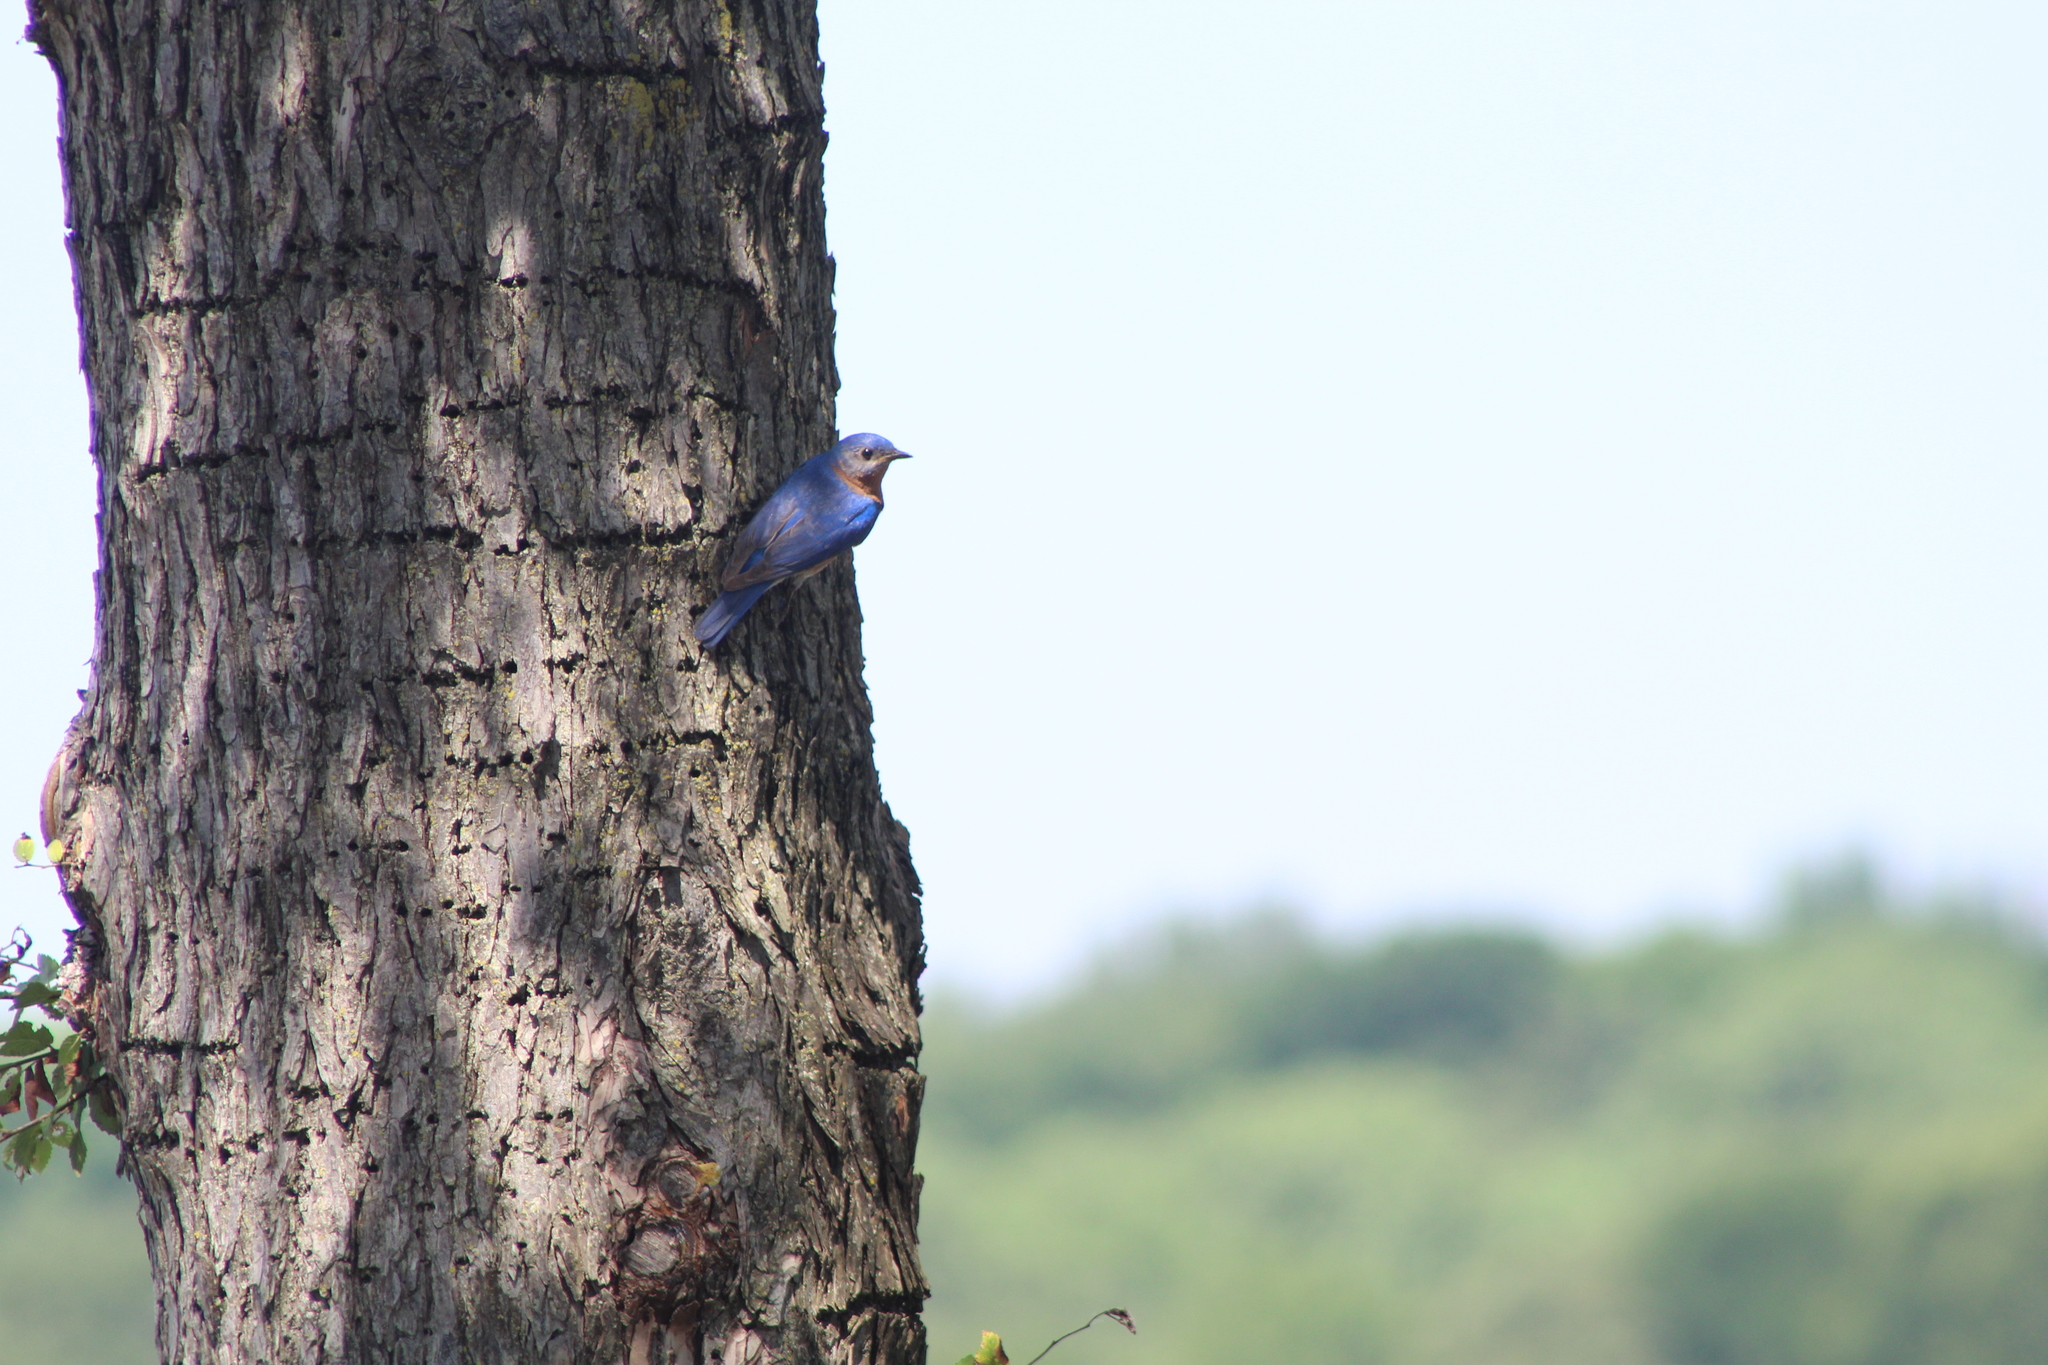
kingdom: Animalia
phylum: Chordata
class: Aves
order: Passeriformes
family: Turdidae
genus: Sialia
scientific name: Sialia sialis
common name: Eastern bluebird
